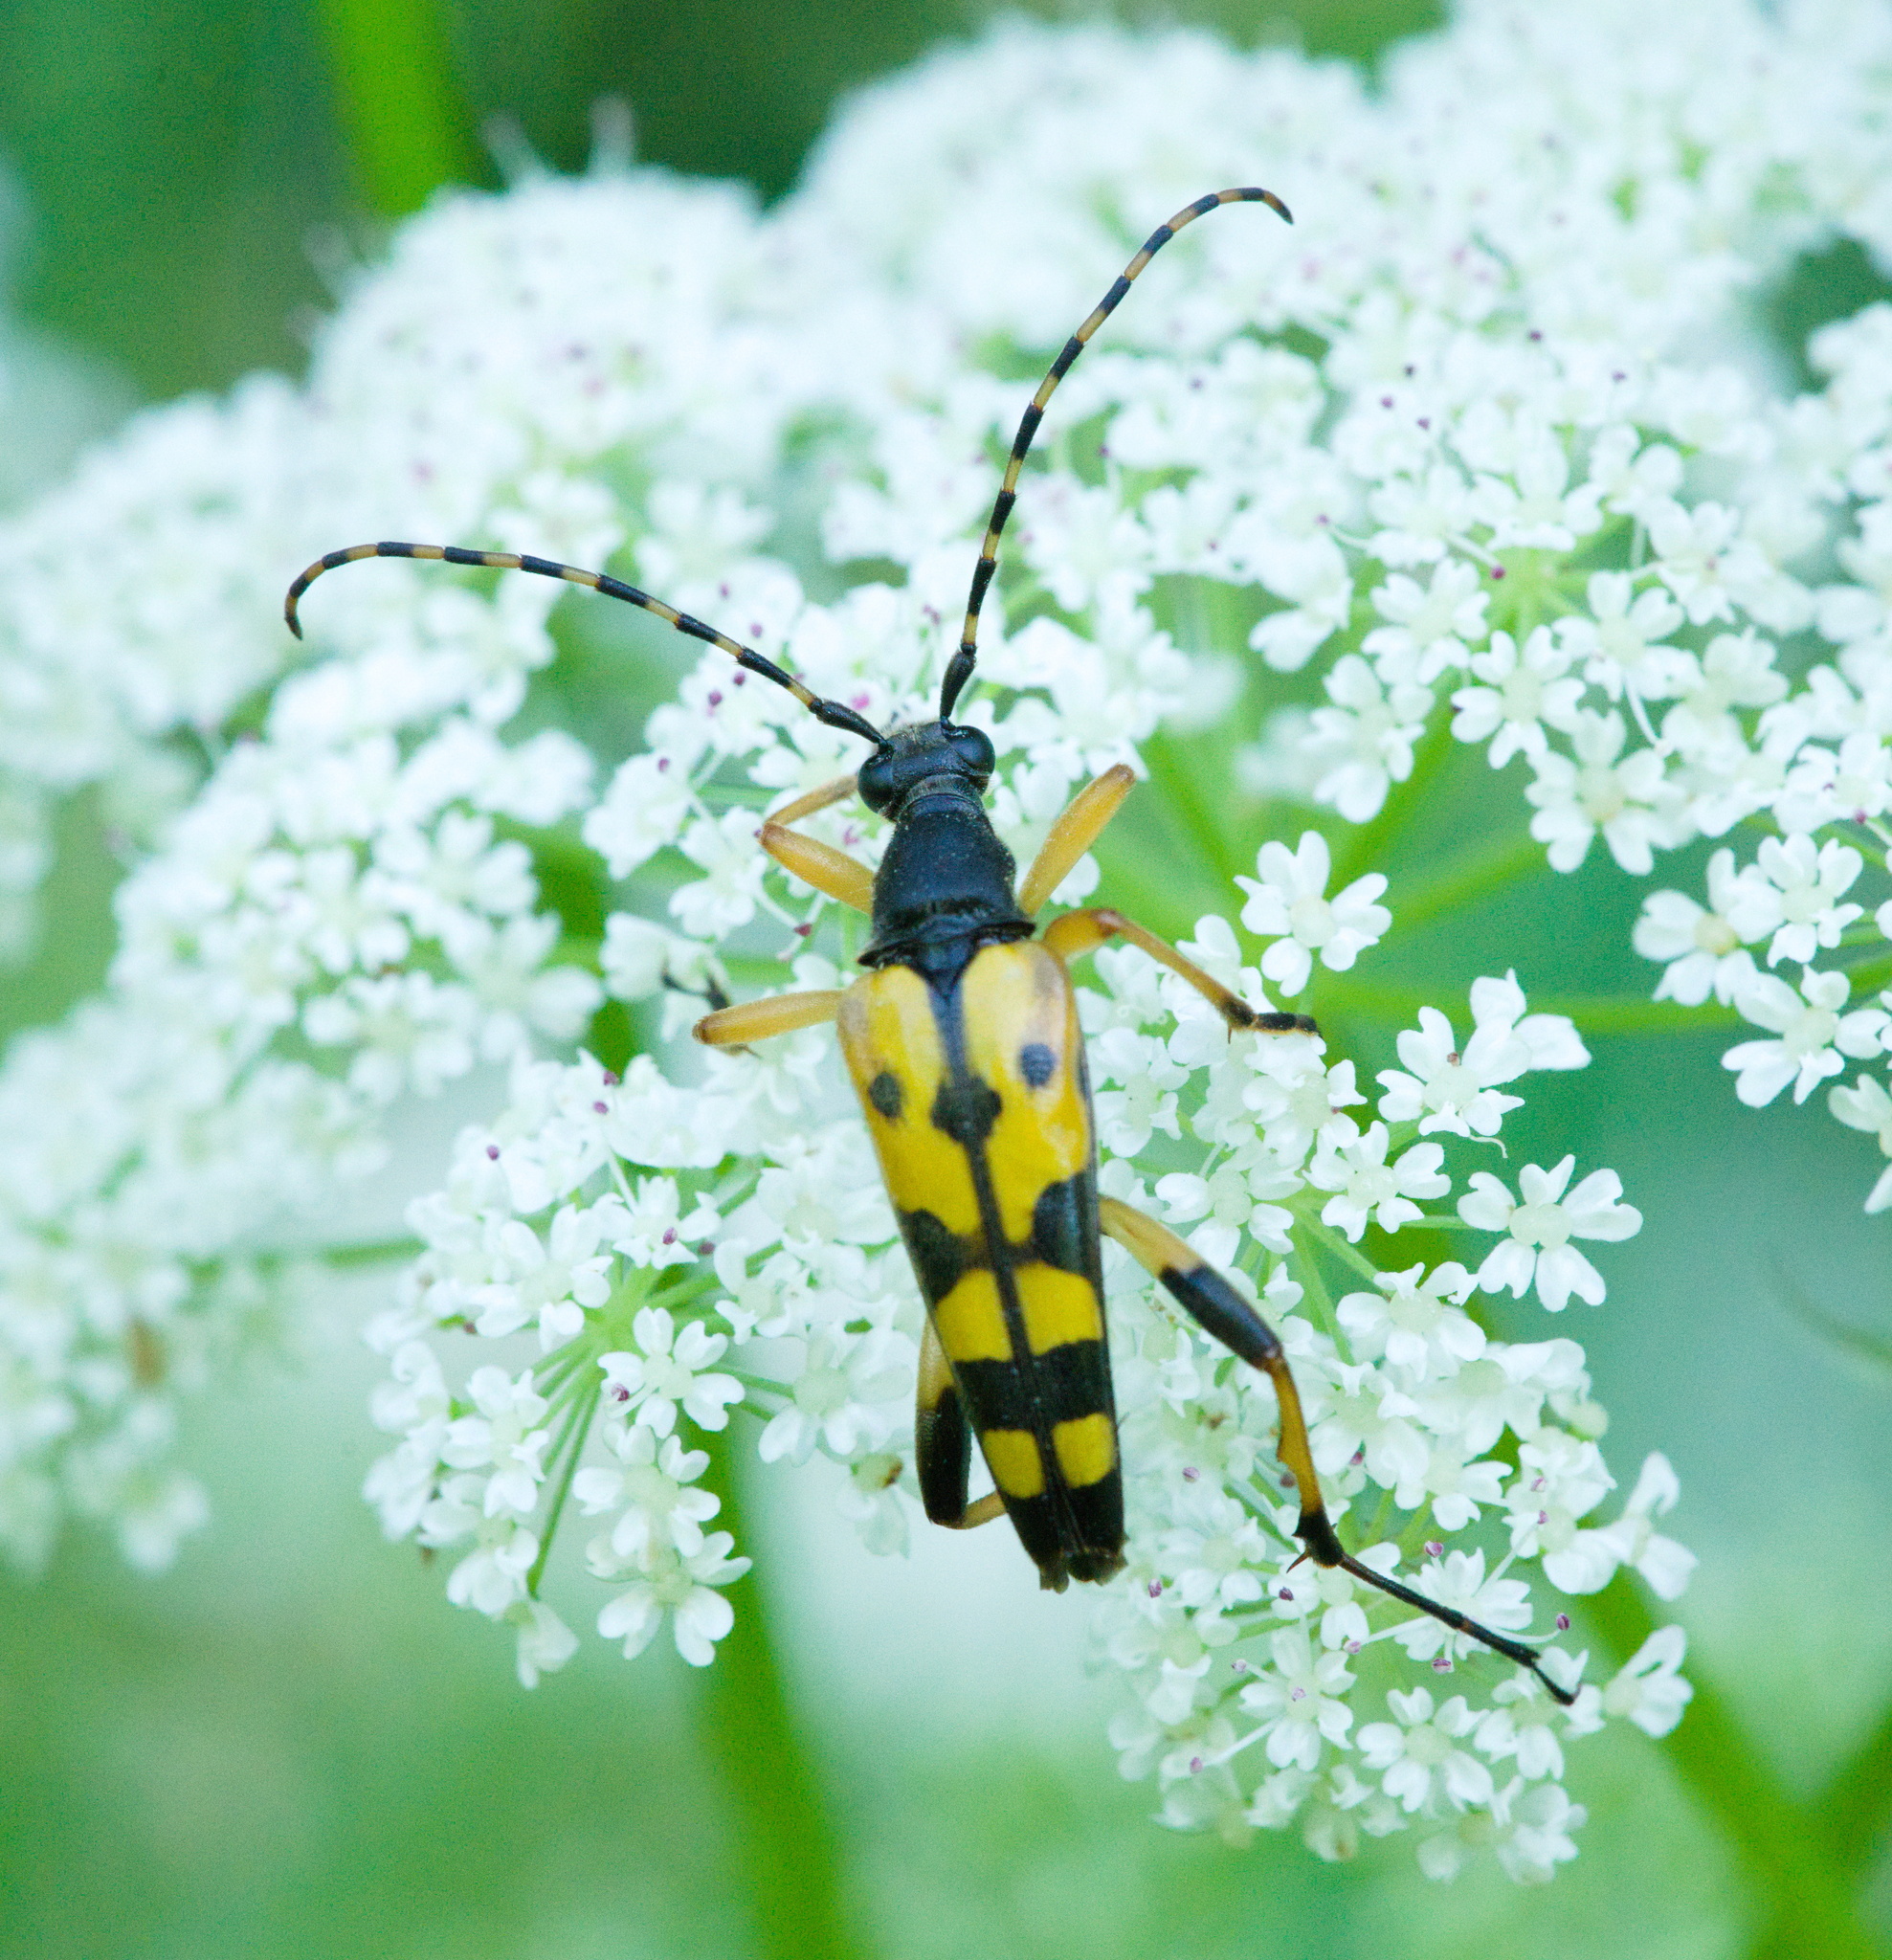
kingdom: Animalia
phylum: Arthropoda
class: Insecta
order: Coleoptera
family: Cerambycidae
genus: Rutpela
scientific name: Rutpela maculata
